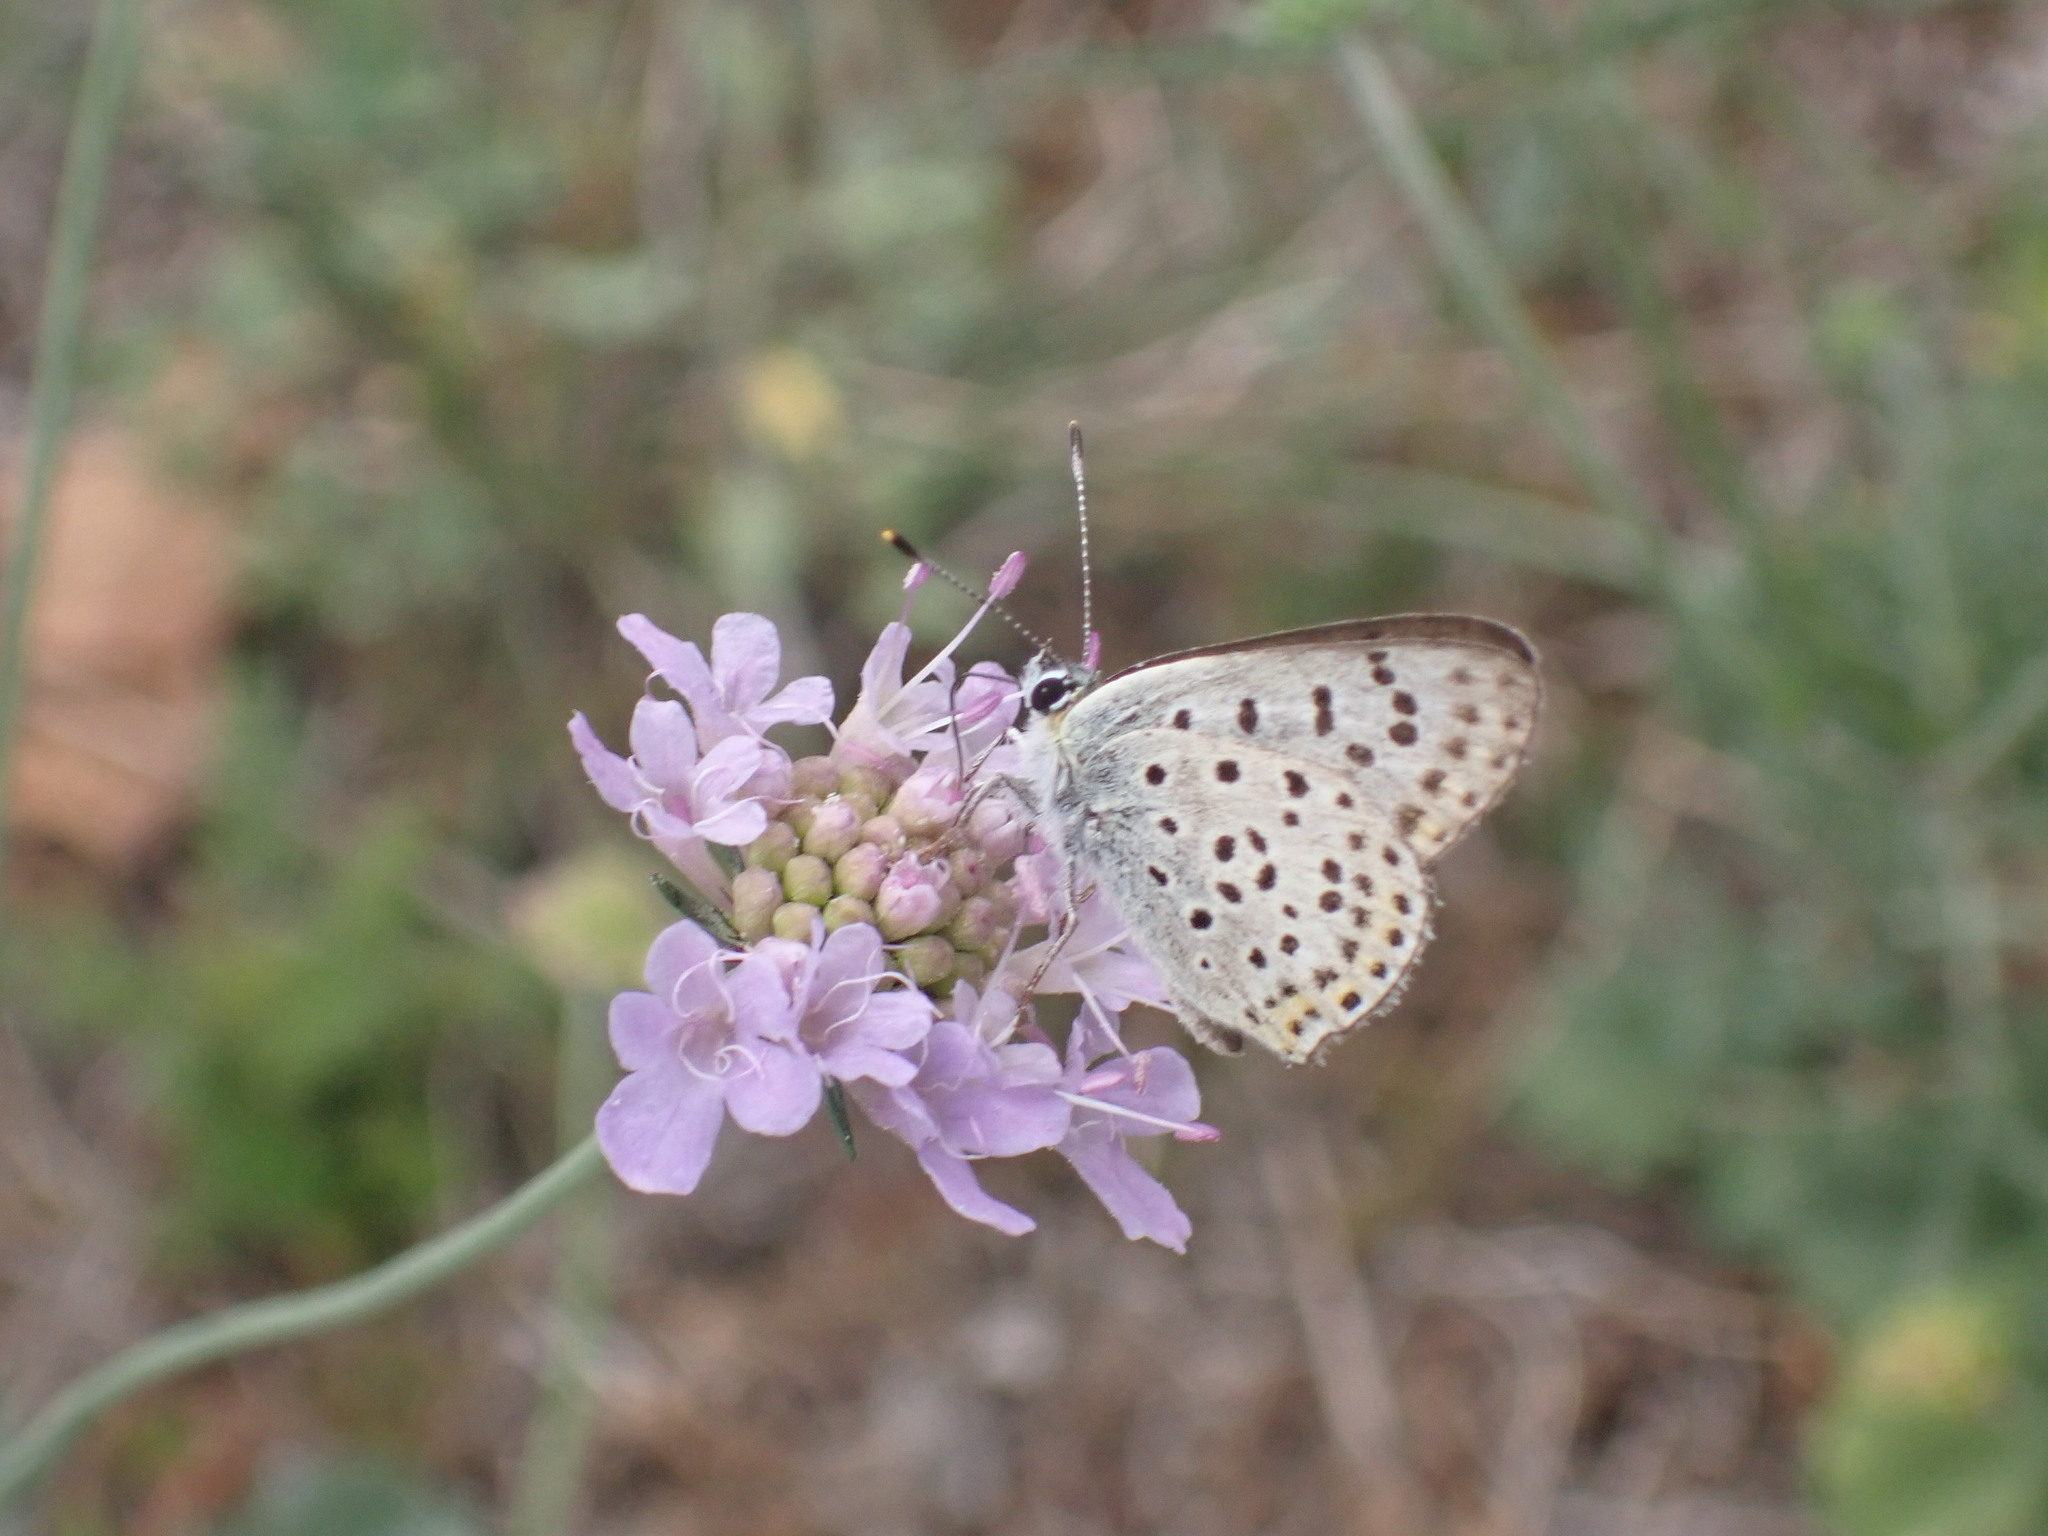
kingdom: Animalia
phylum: Arthropoda
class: Insecta
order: Lepidoptera
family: Lycaenidae
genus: Loweia
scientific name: Loweia tityrus
